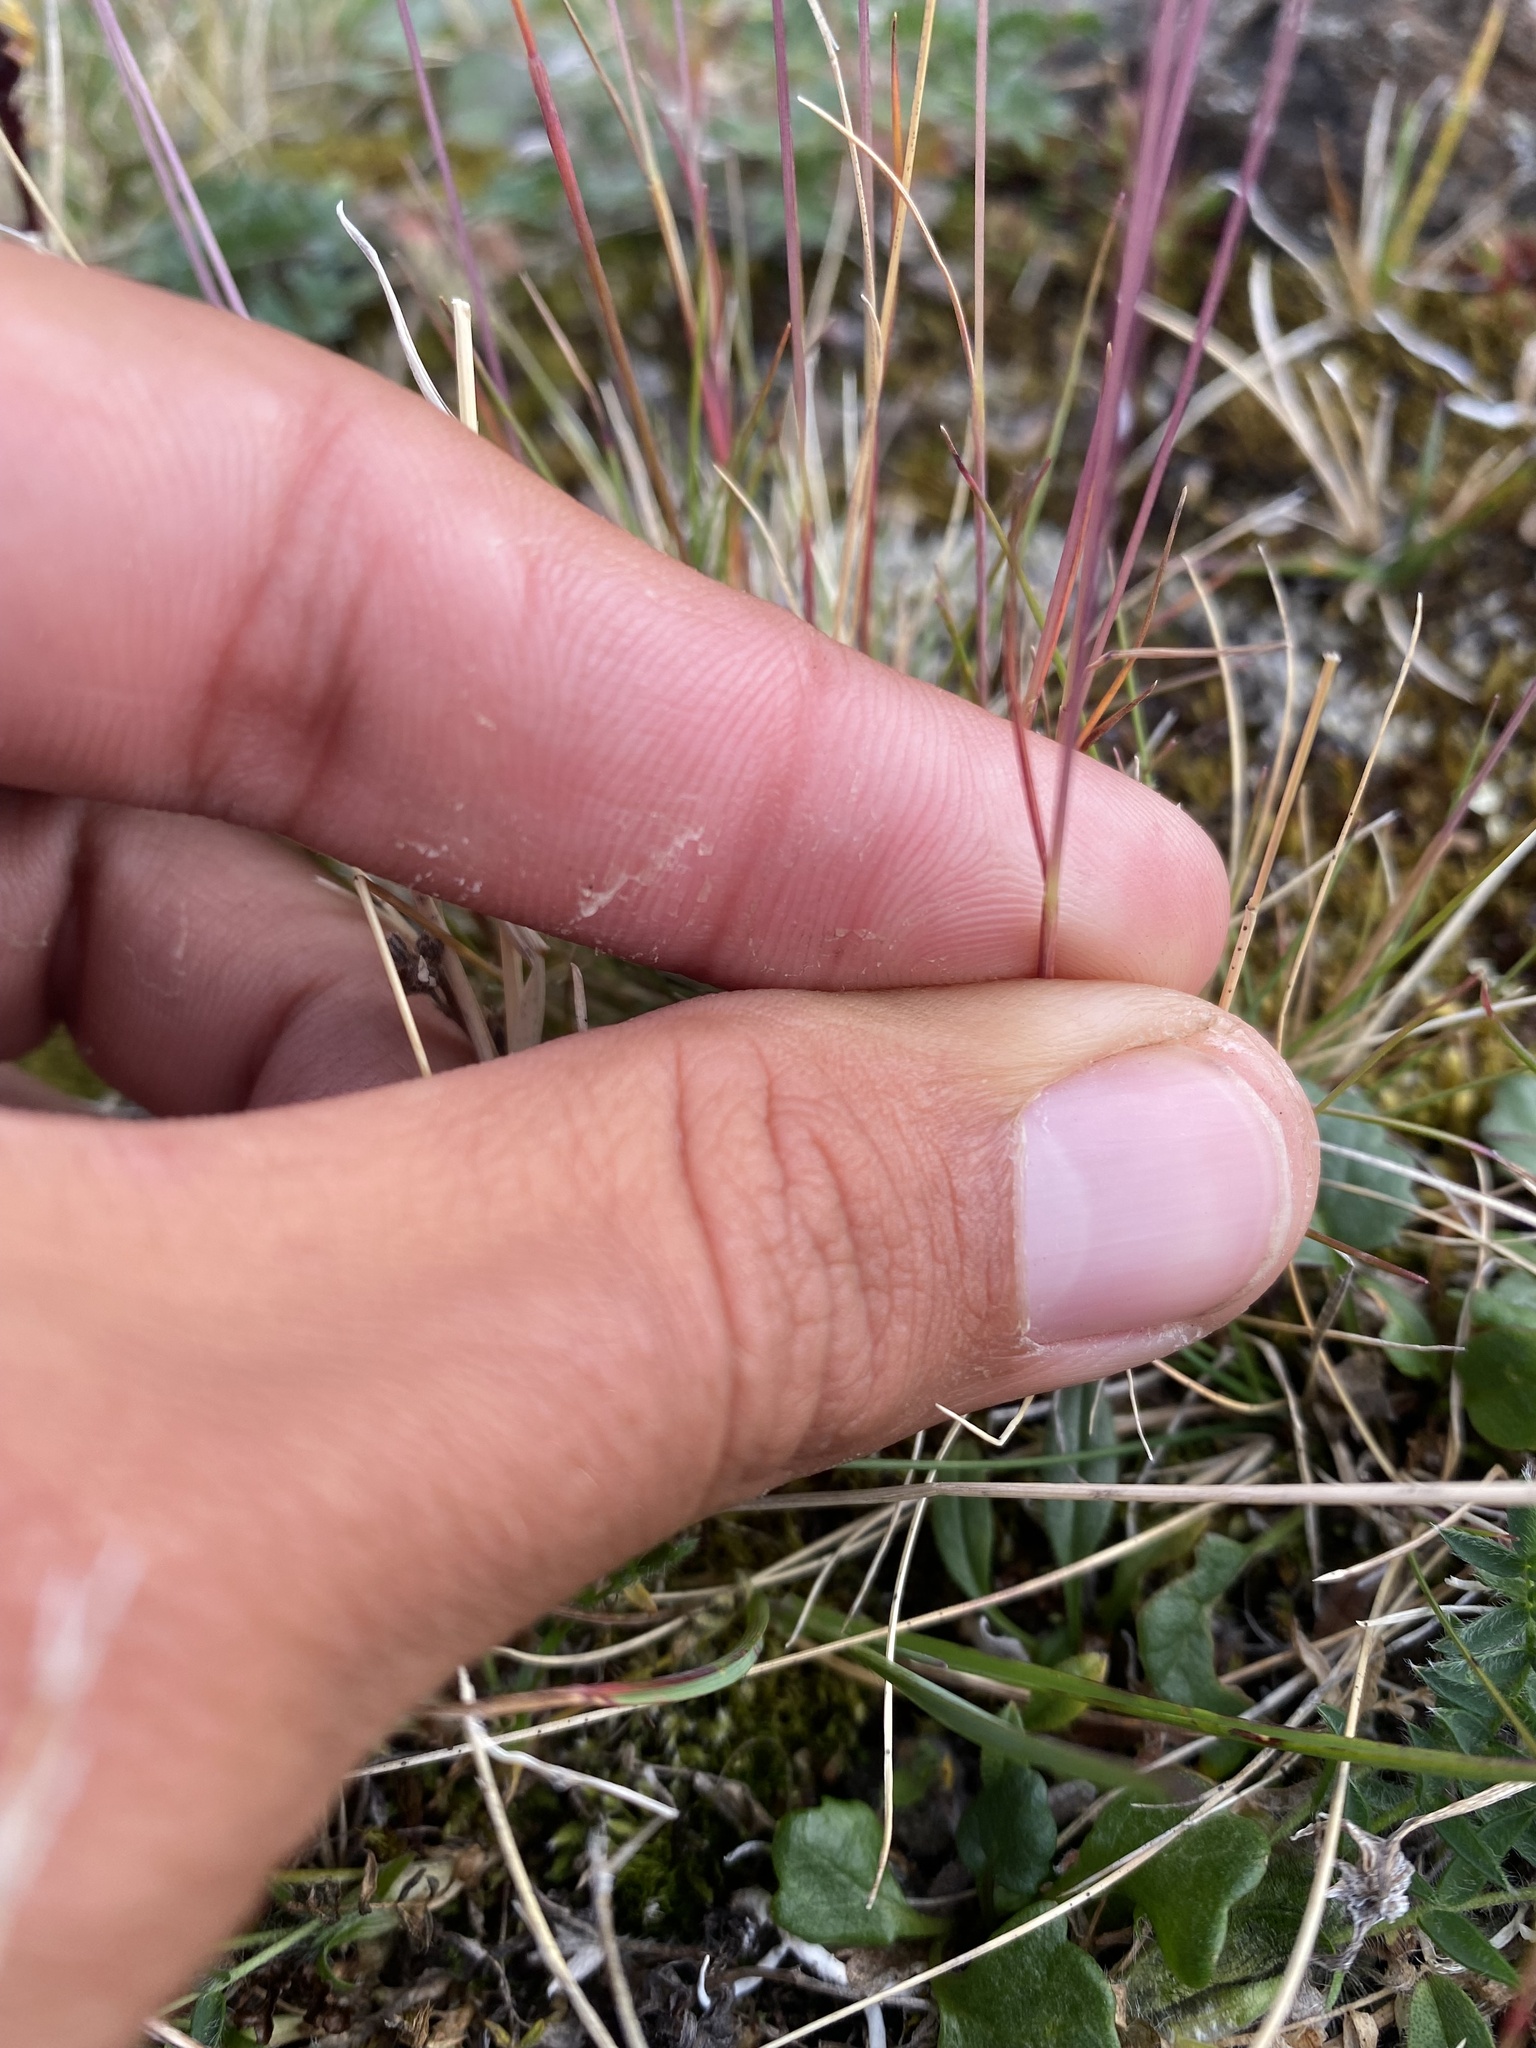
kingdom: Plantae
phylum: Tracheophyta
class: Liliopsida
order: Poales
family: Poaceae
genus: Festuca
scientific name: Festuca viviparoidea
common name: Northern fescue
